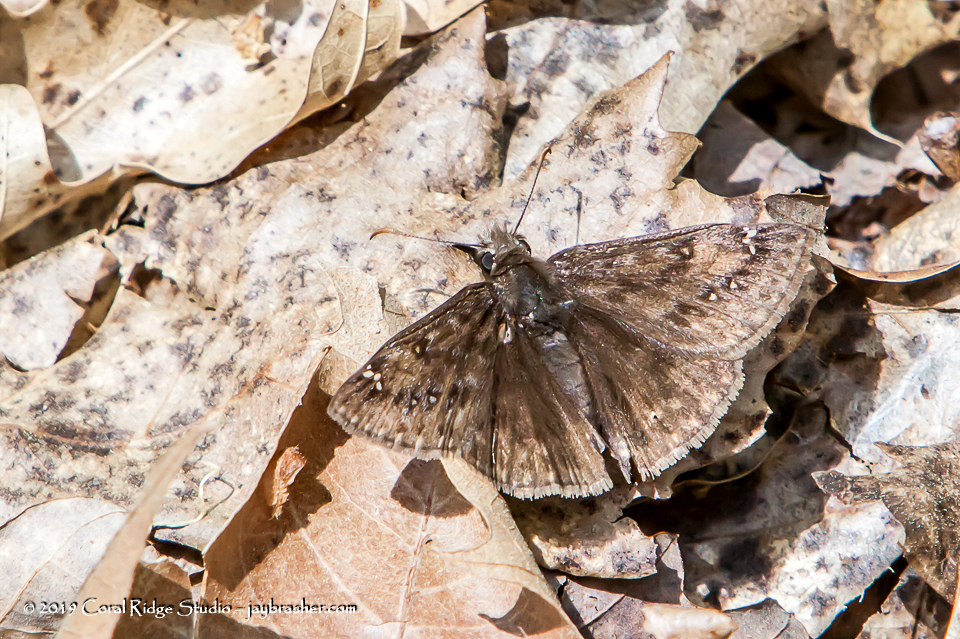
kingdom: Animalia
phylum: Arthropoda
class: Insecta
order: Lepidoptera
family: Hesperiidae
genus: Erynnis
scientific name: Erynnis juvenalis
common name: Juvenal's duskywing
